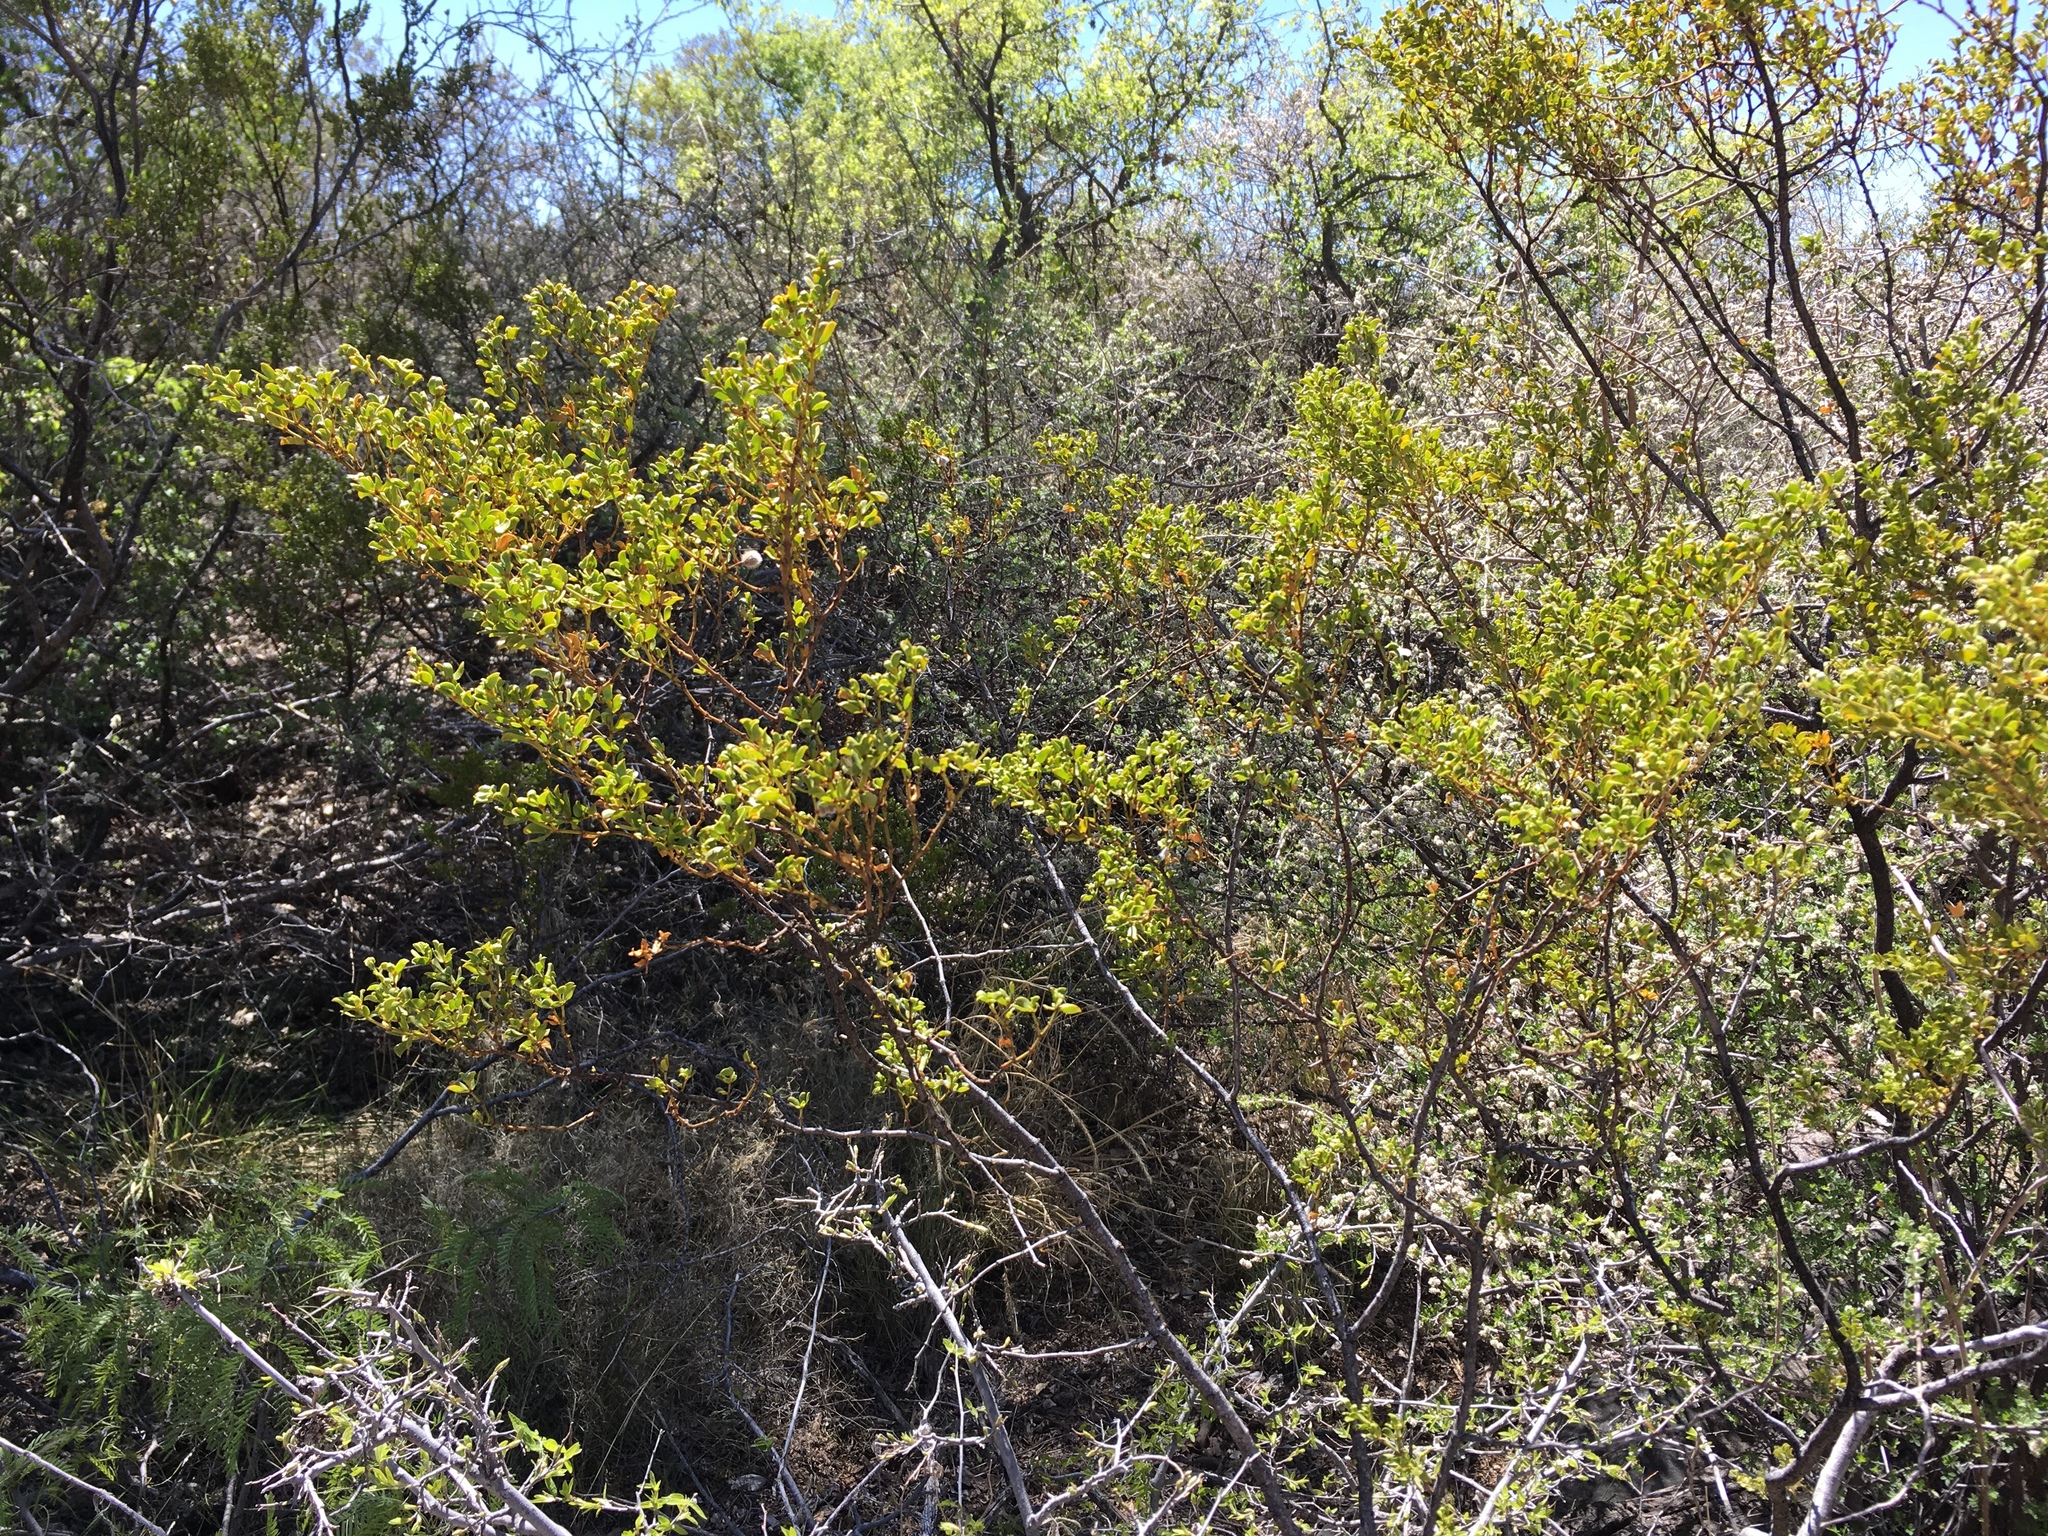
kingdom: Plantae
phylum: Tracheophyta
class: Magnoliopsida
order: Zygophyllales
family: Zygophyllaceae
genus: Larrea
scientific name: Larrea tridentata
